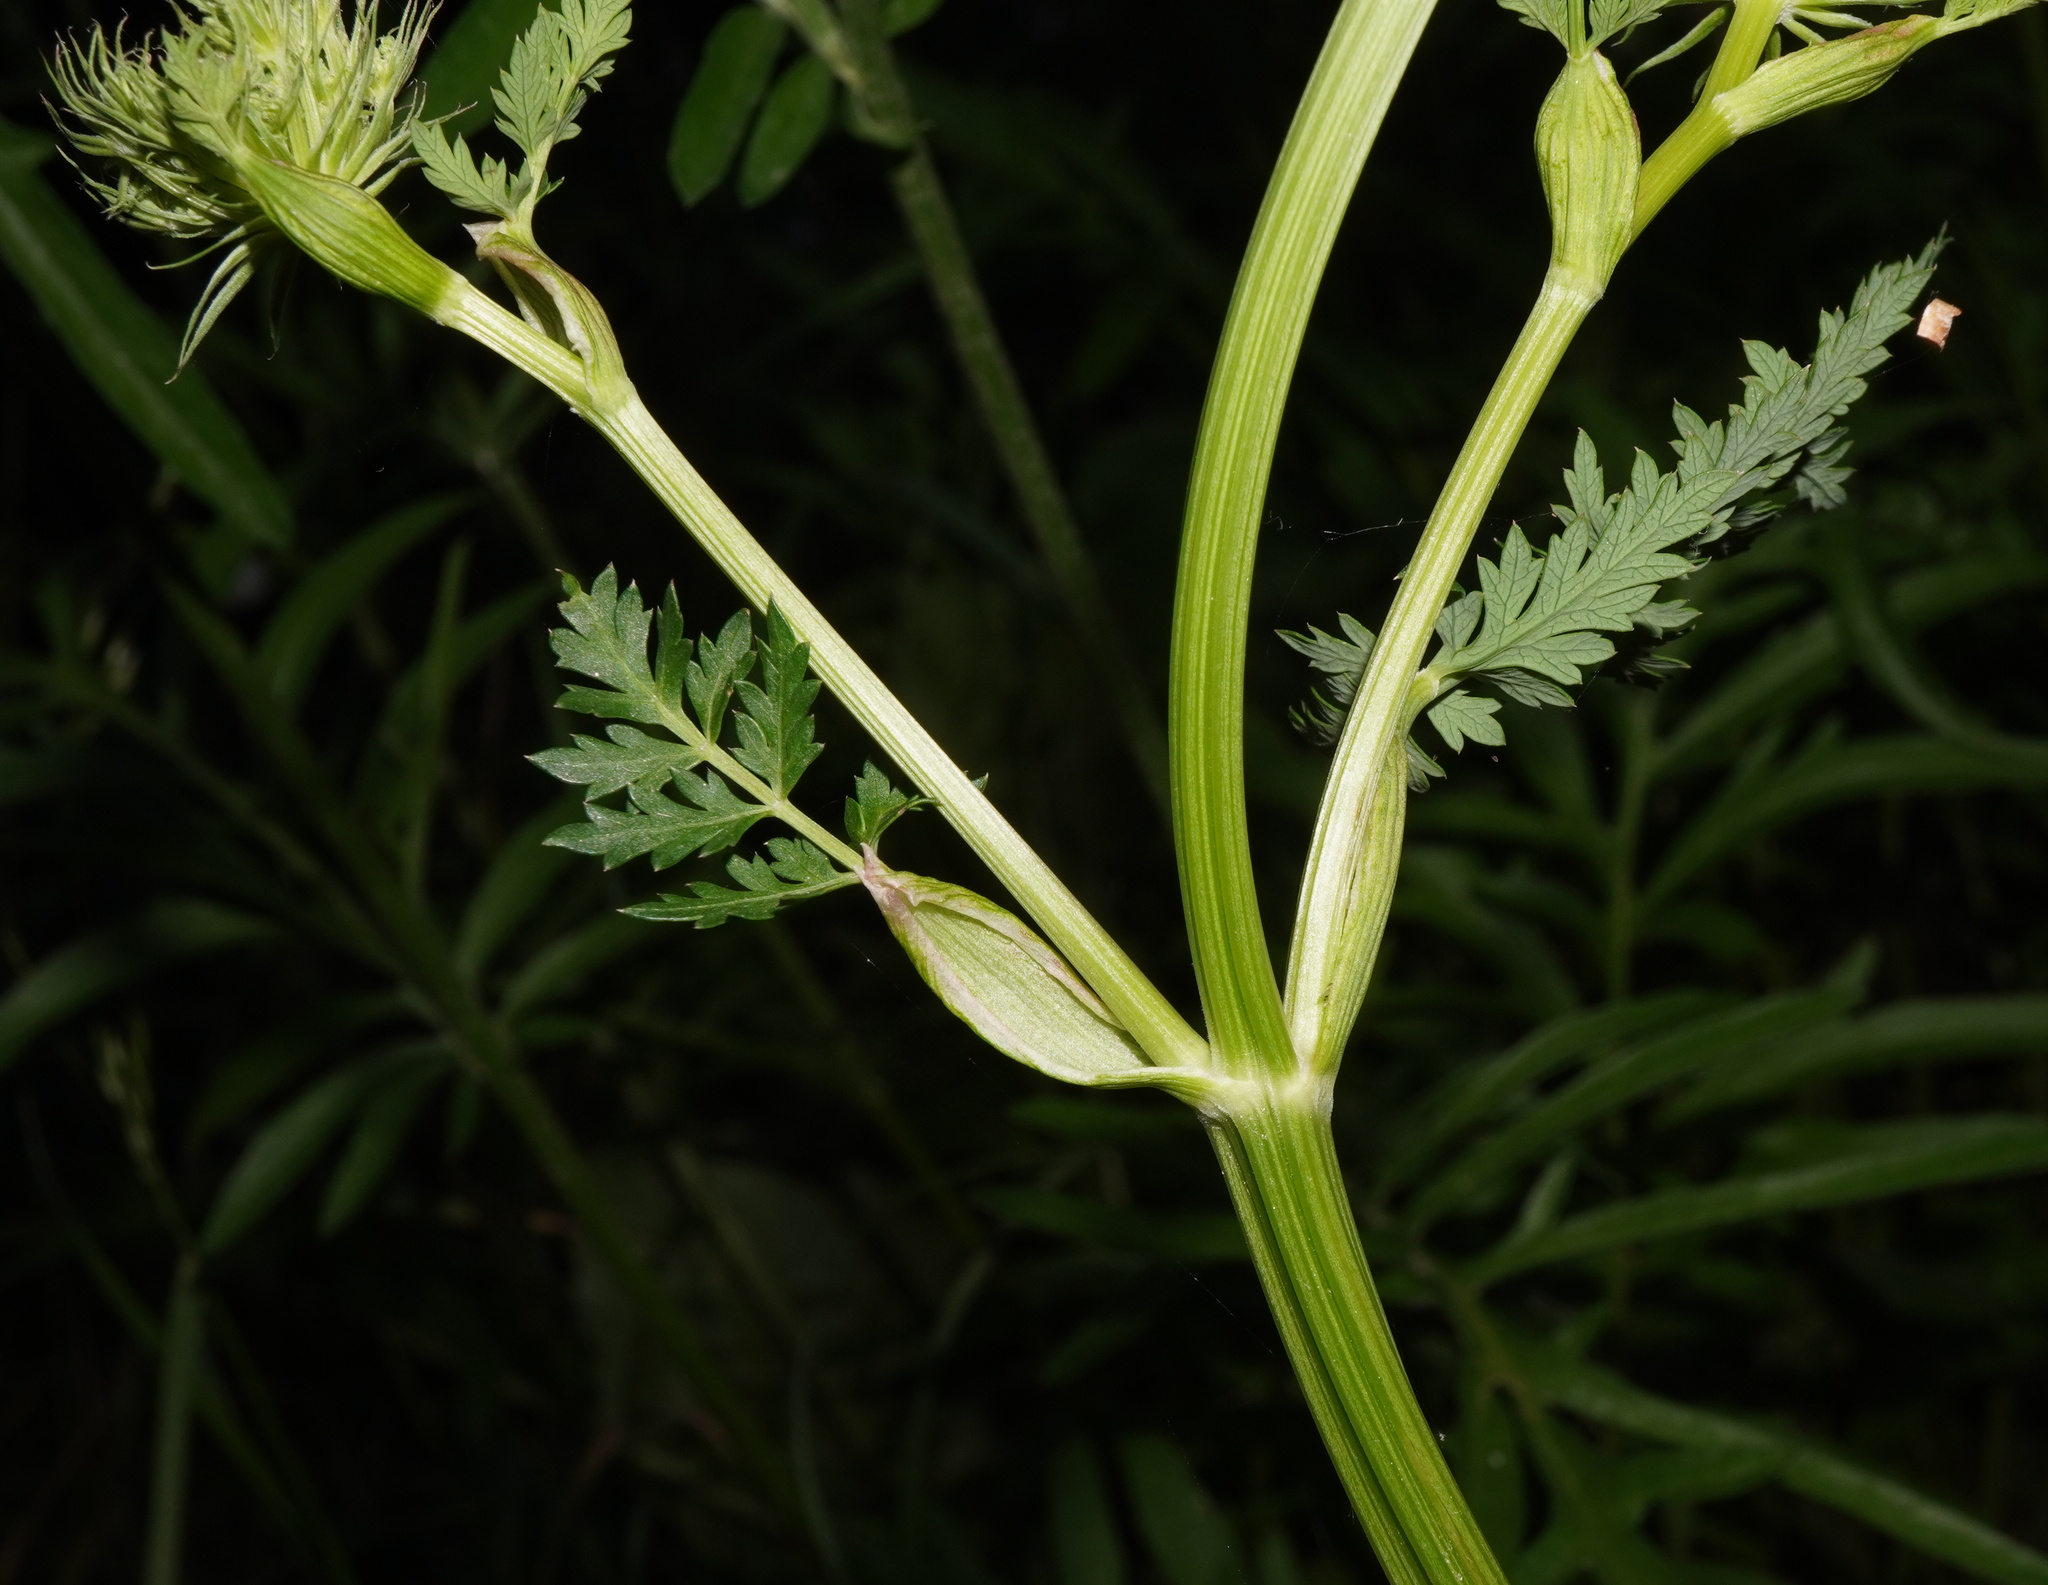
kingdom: Plantae
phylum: Tracheophyta
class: Magnoliopsida
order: Apiales
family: Apiaceae
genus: Seseli
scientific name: Seseli libanotis
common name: Mooncarrot
